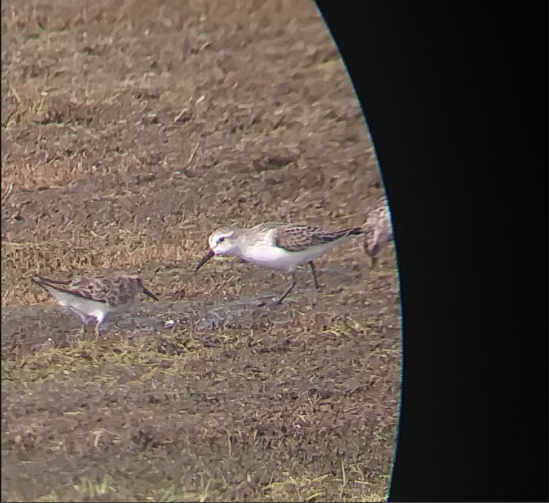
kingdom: Animalia
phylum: Chordata
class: Aves
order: Charadriiformes
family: Scolopacidae
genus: Calidris
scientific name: Calidris mauri
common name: Western sandpiper
